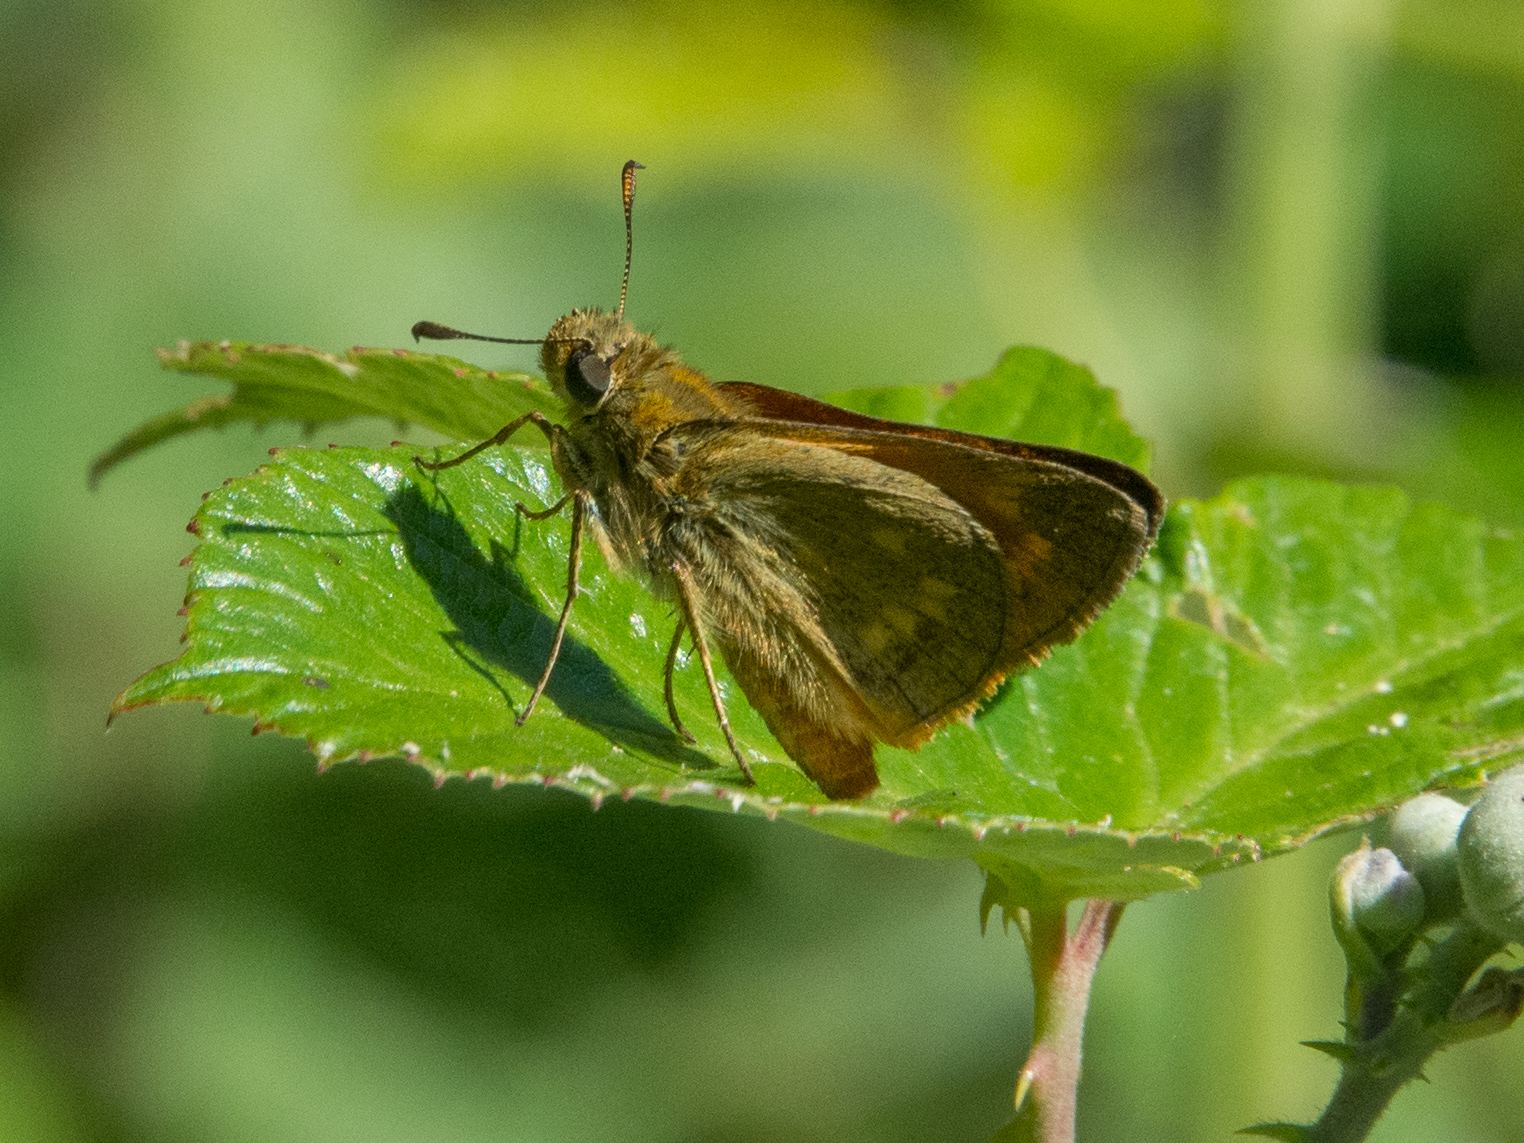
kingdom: Animalia
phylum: Arthropoda
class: Insecta
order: Lepidoptera
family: Hesperiidae
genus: Ochlodes
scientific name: Ochlodes venata
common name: Large skipper
